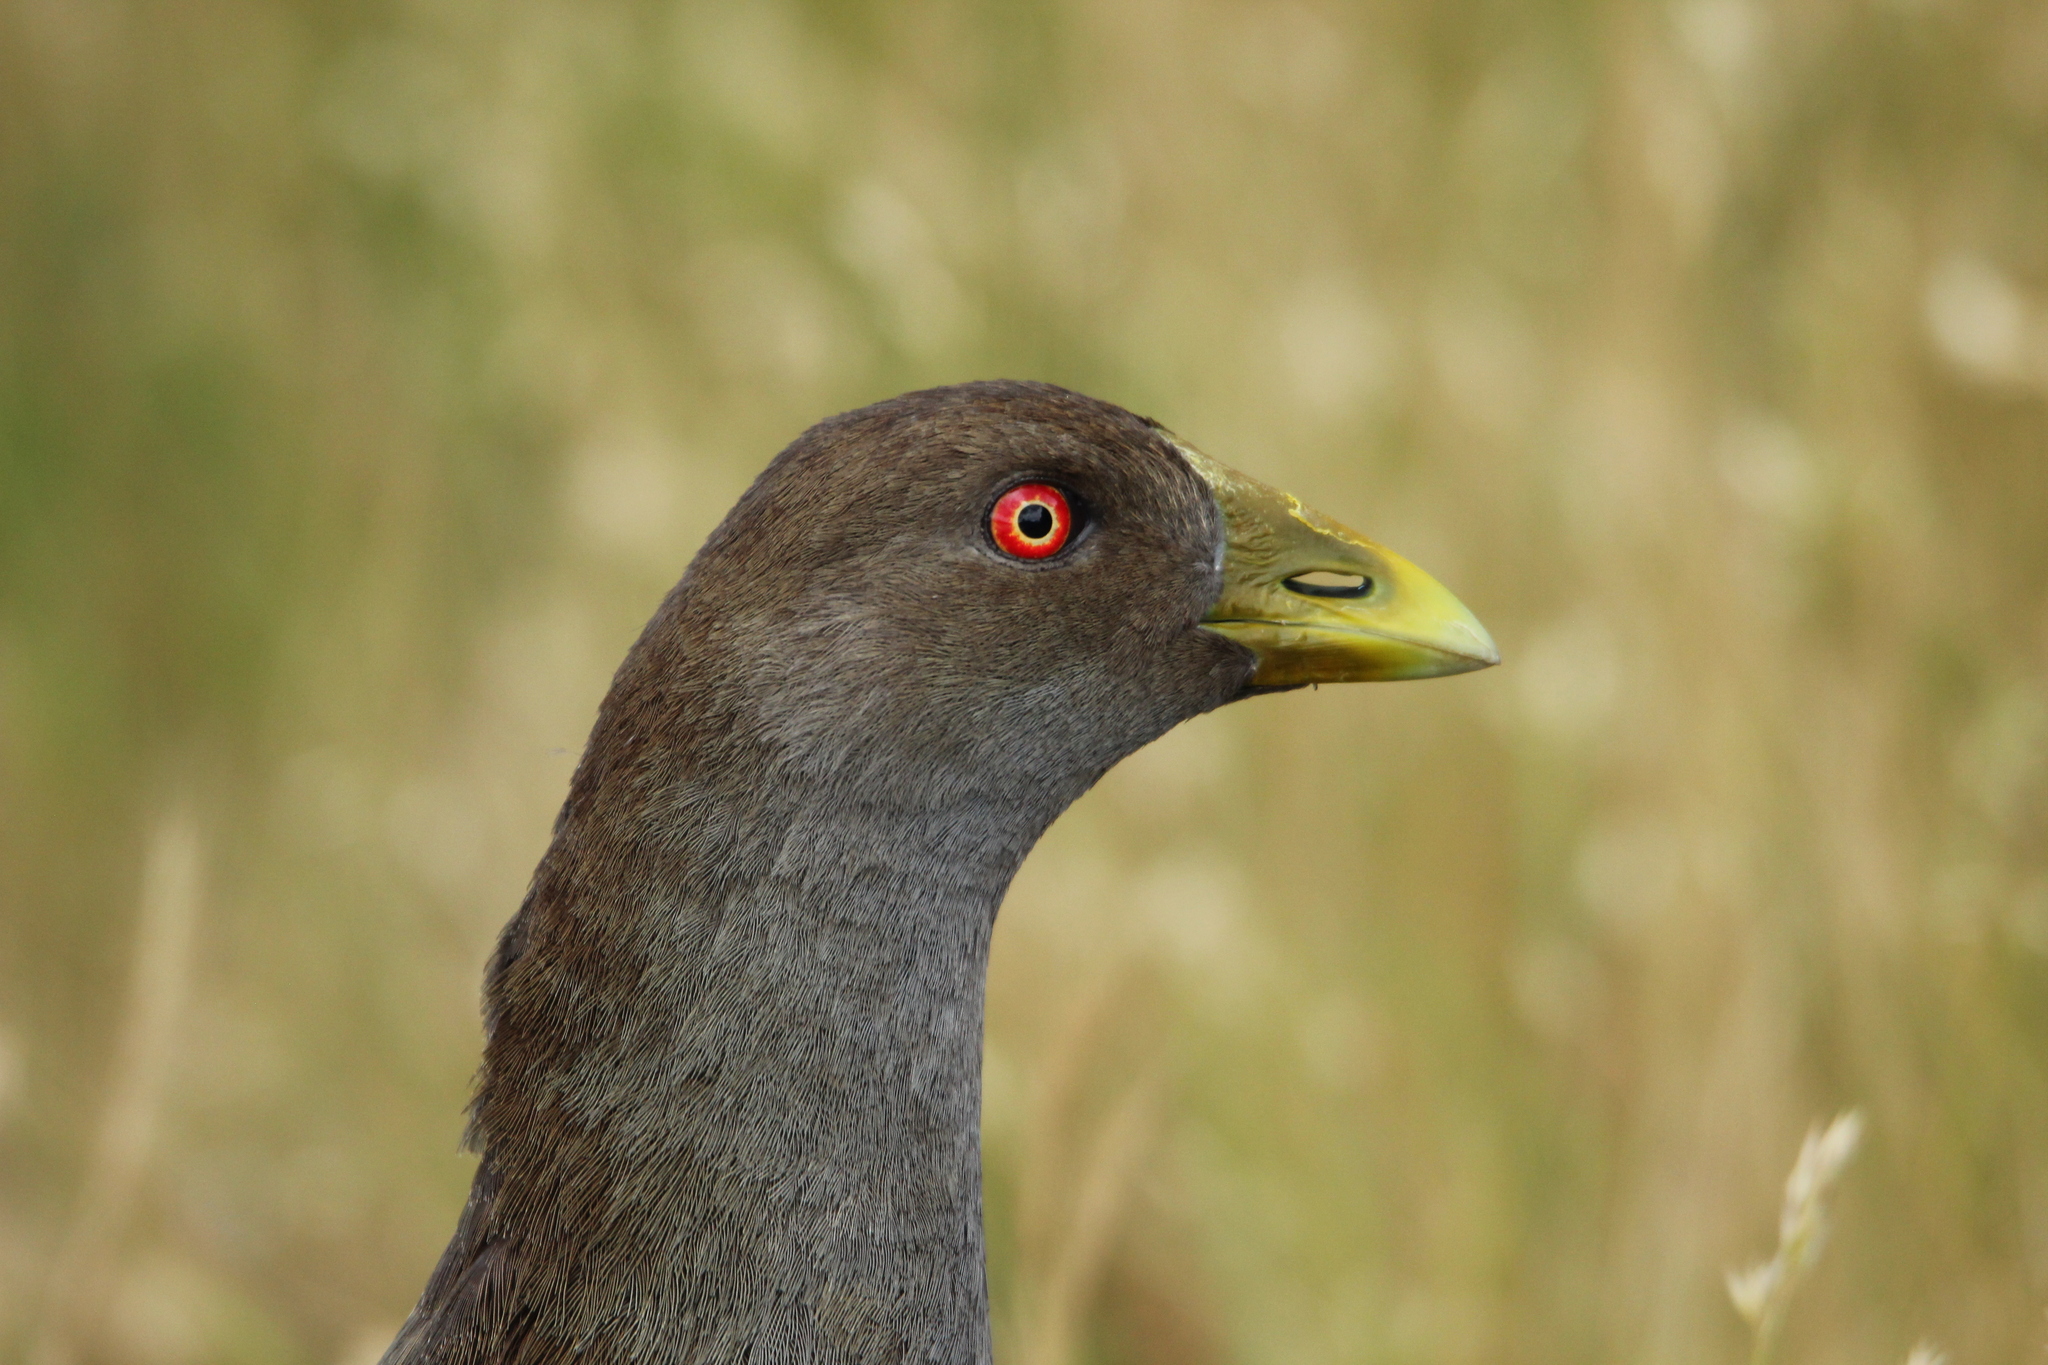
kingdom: Animalia
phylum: Chordata
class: Aves
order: Gruiformes
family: Rallidae
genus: Gallinula
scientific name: Gallinula mortierii
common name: Tasmanian nativehen
